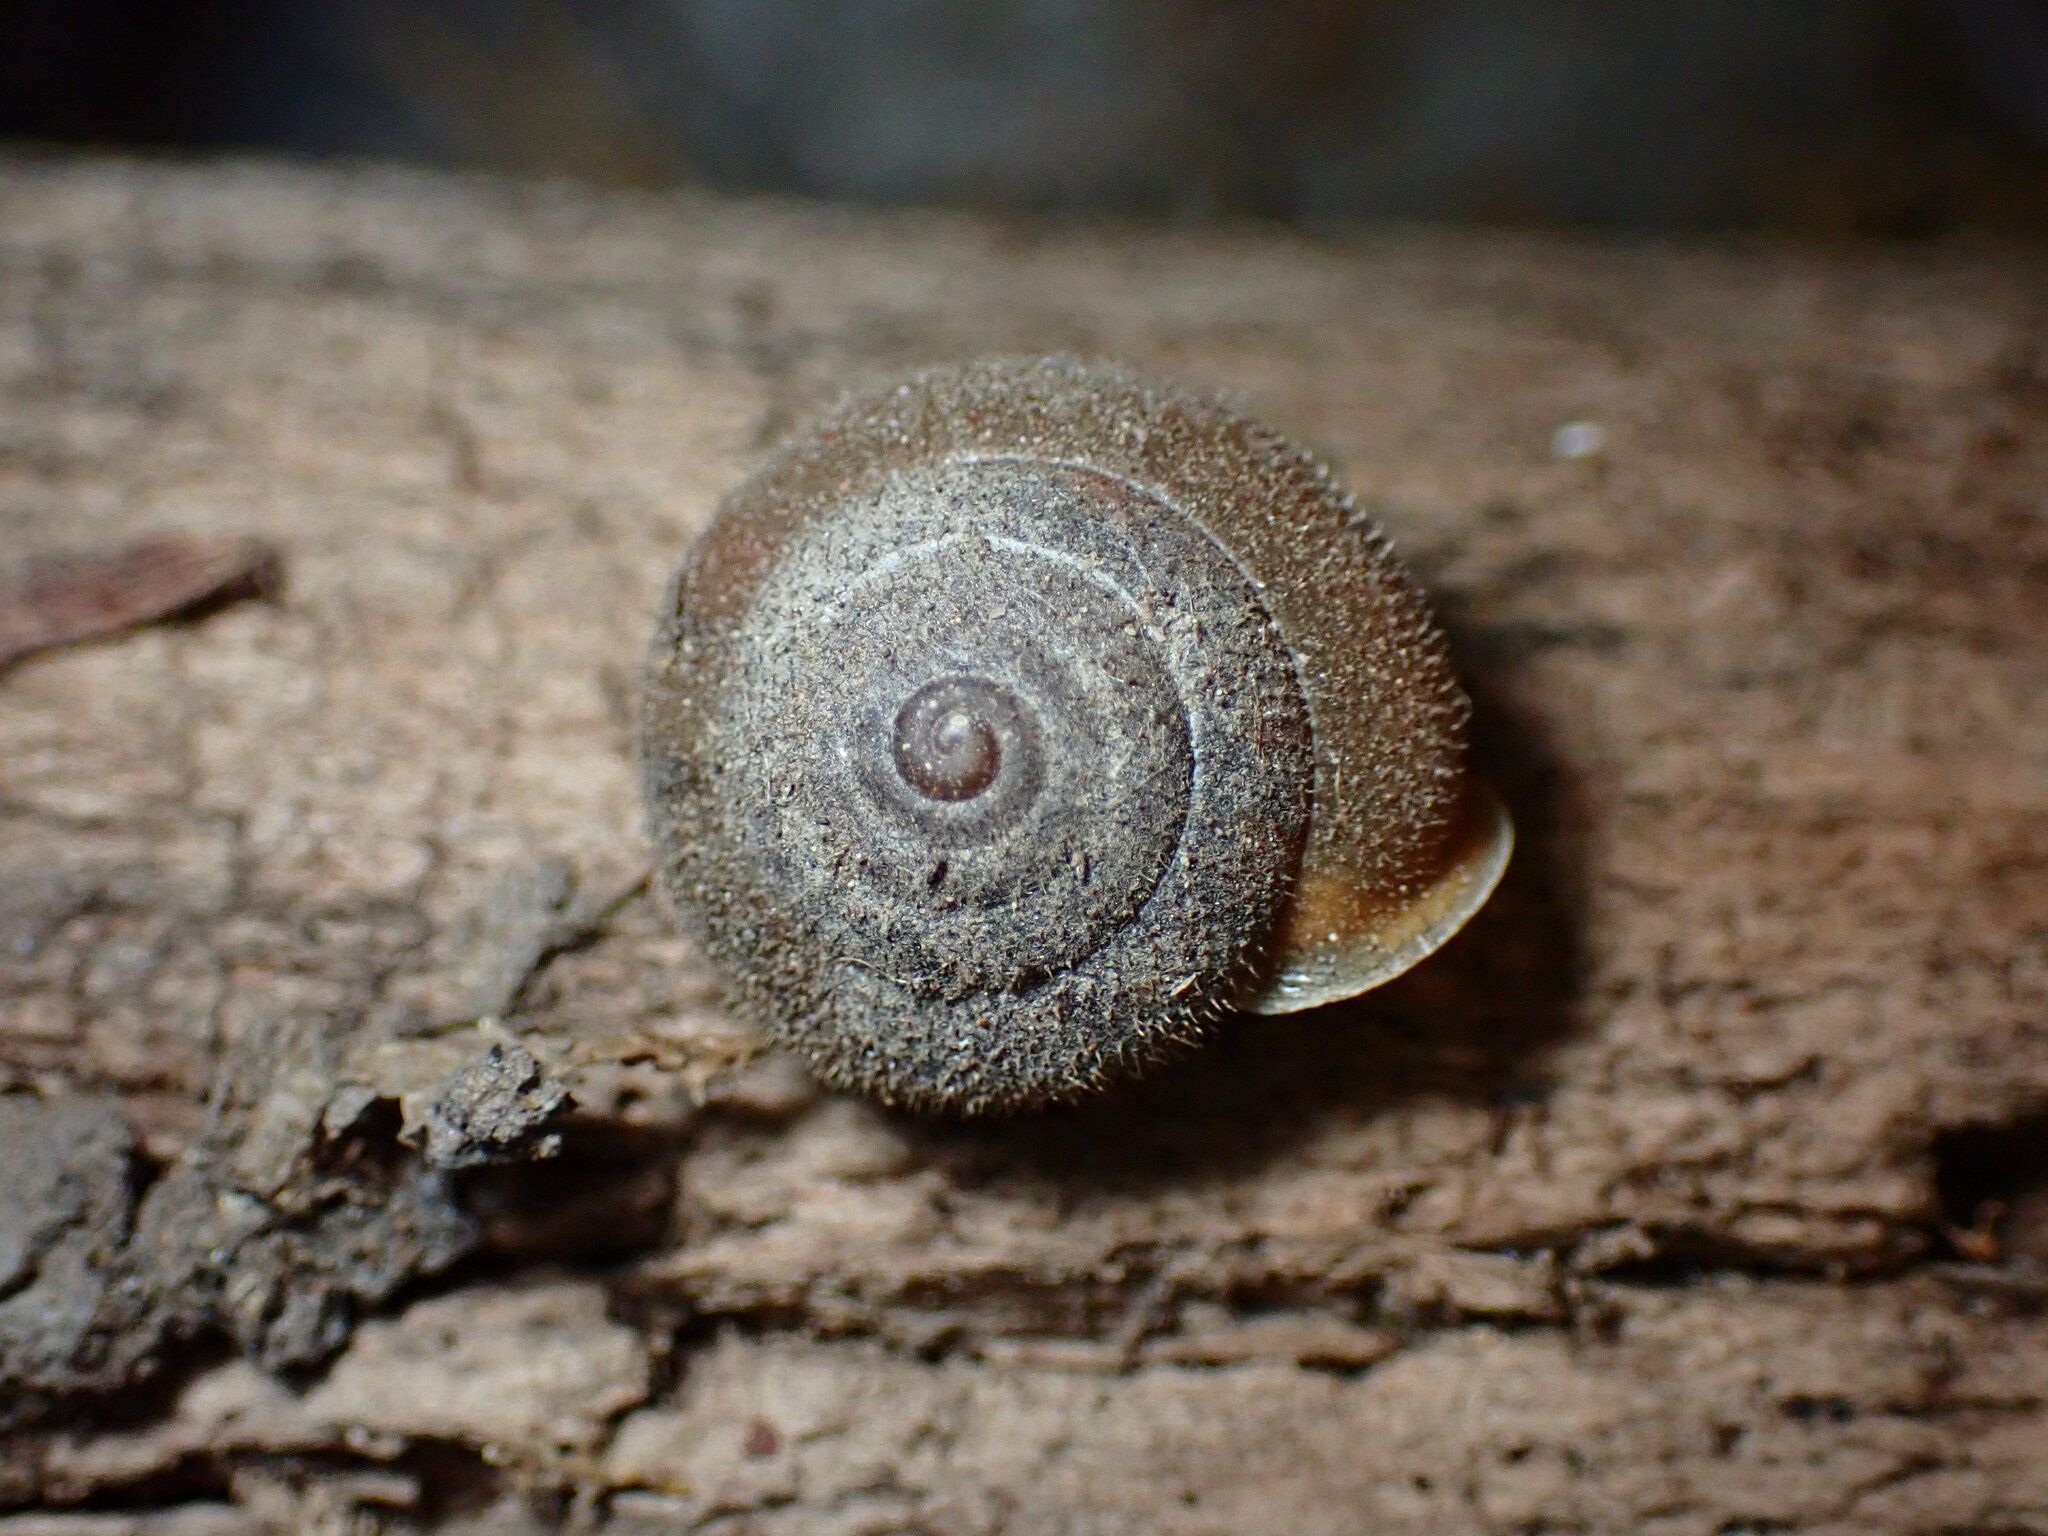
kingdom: Animalia
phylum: Mollusca
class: Gastropoda
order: Stylommatophora
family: Polygyridae
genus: Vespericola
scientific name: Vespericola columbianus
